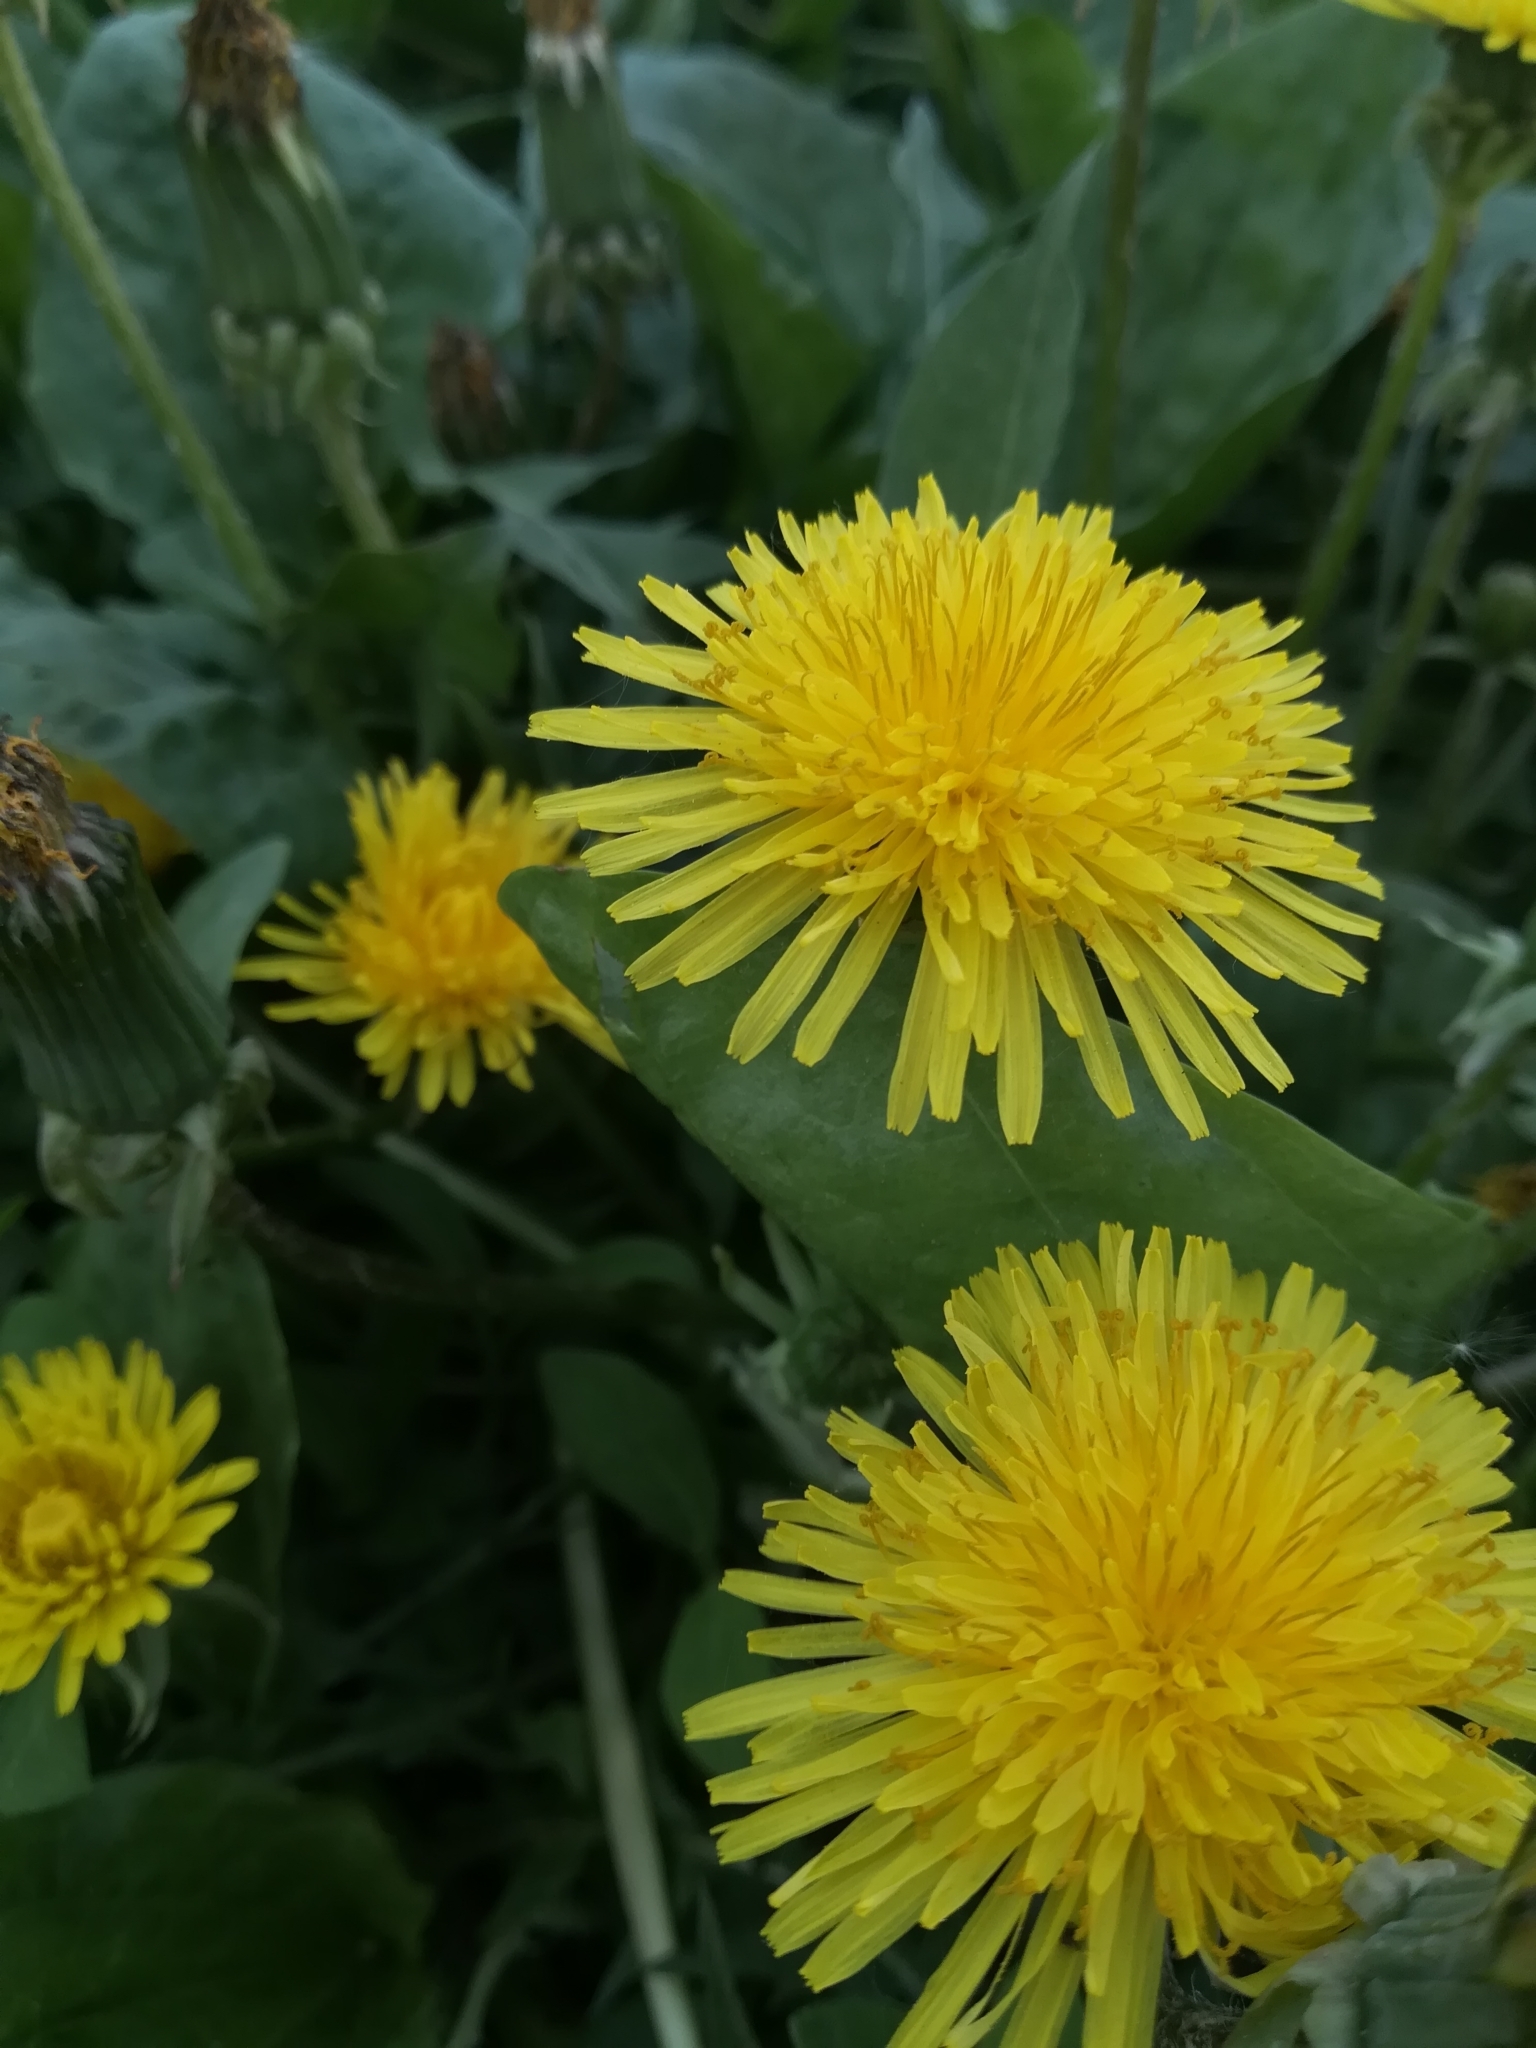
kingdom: Plantae
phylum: Tracheophyta
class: Magnoliopsida
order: Asterales
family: Asteraceae
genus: Taraxacum
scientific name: Taraxacum officinale
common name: Common dandelion
